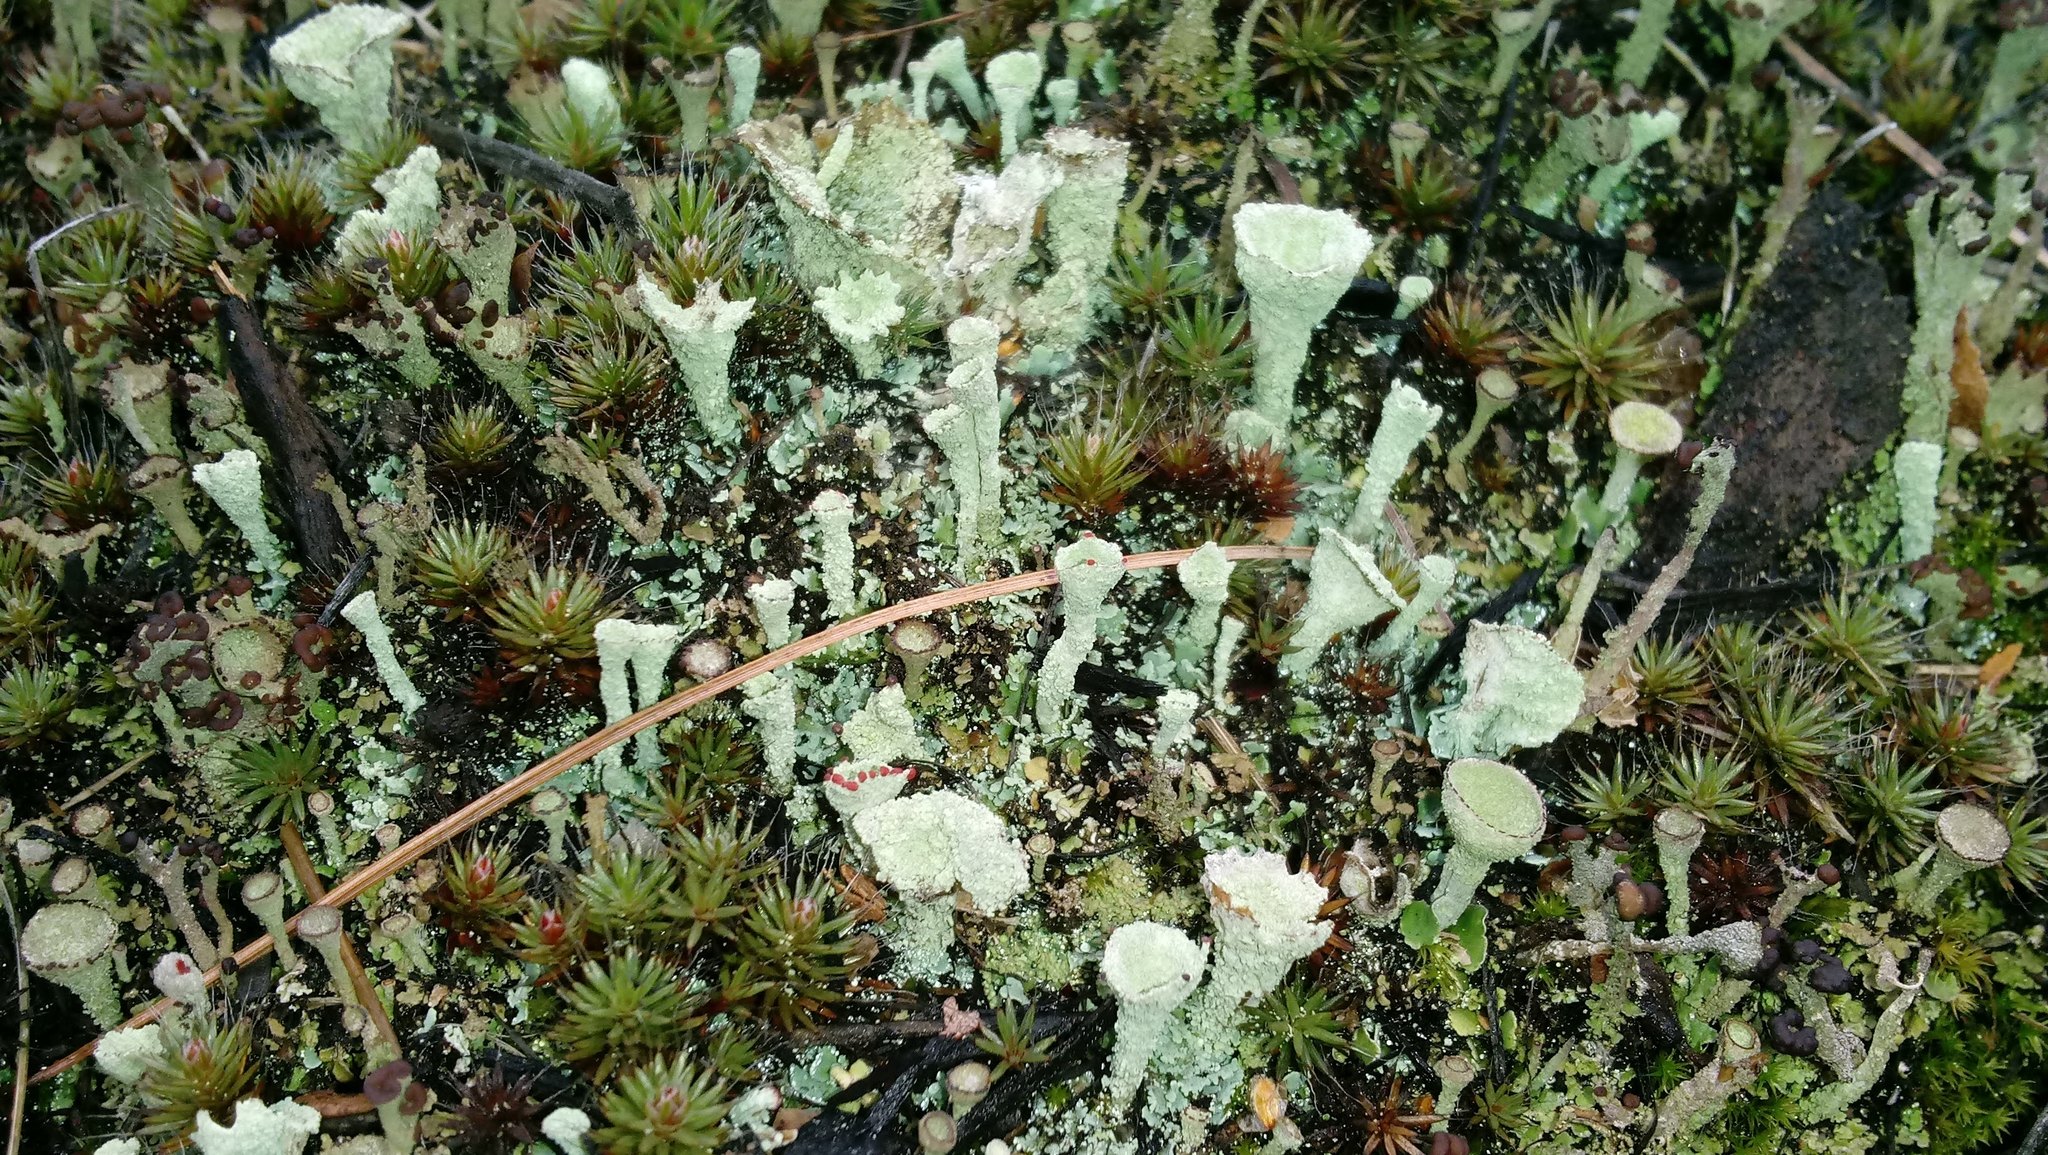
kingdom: Fungi
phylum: Ascomycota
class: Lecanoromycetes
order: Lecanorales
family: Cladoniaceae
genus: Cladonia
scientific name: Cladonia pleurota
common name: Red-fruited pixie cup
